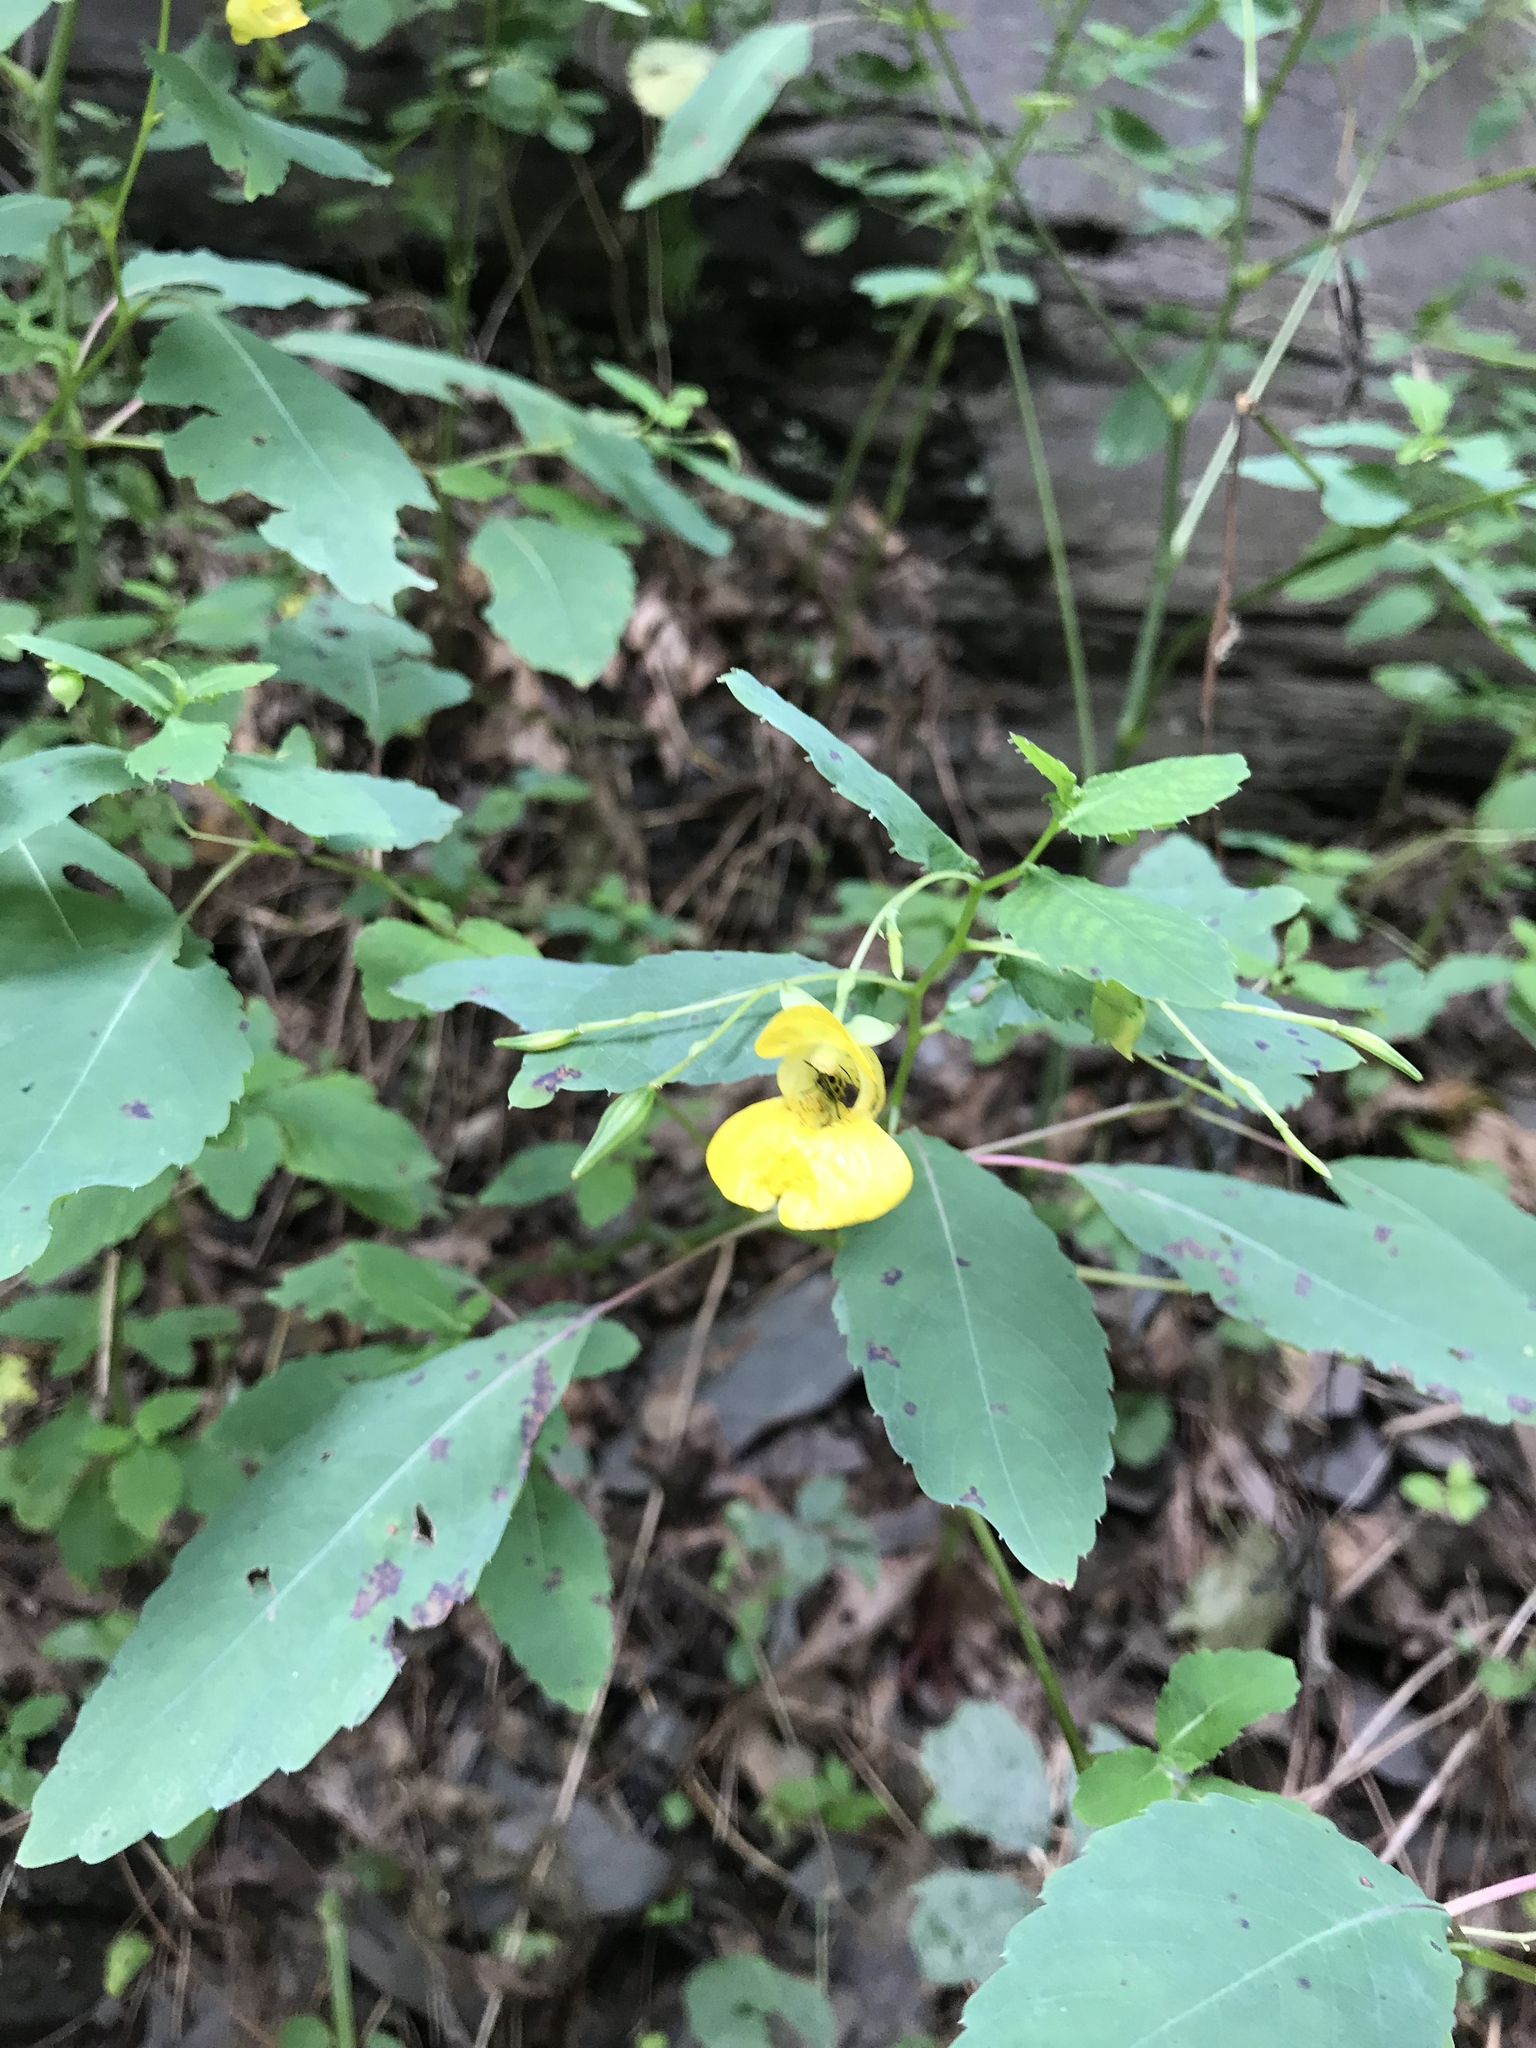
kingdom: Plantae
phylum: Tracheophyta
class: Magnoliopsida
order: Ericales
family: Balsaminaceae
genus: Impatiens
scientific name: Impatiens pallida
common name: Pale snapweed
